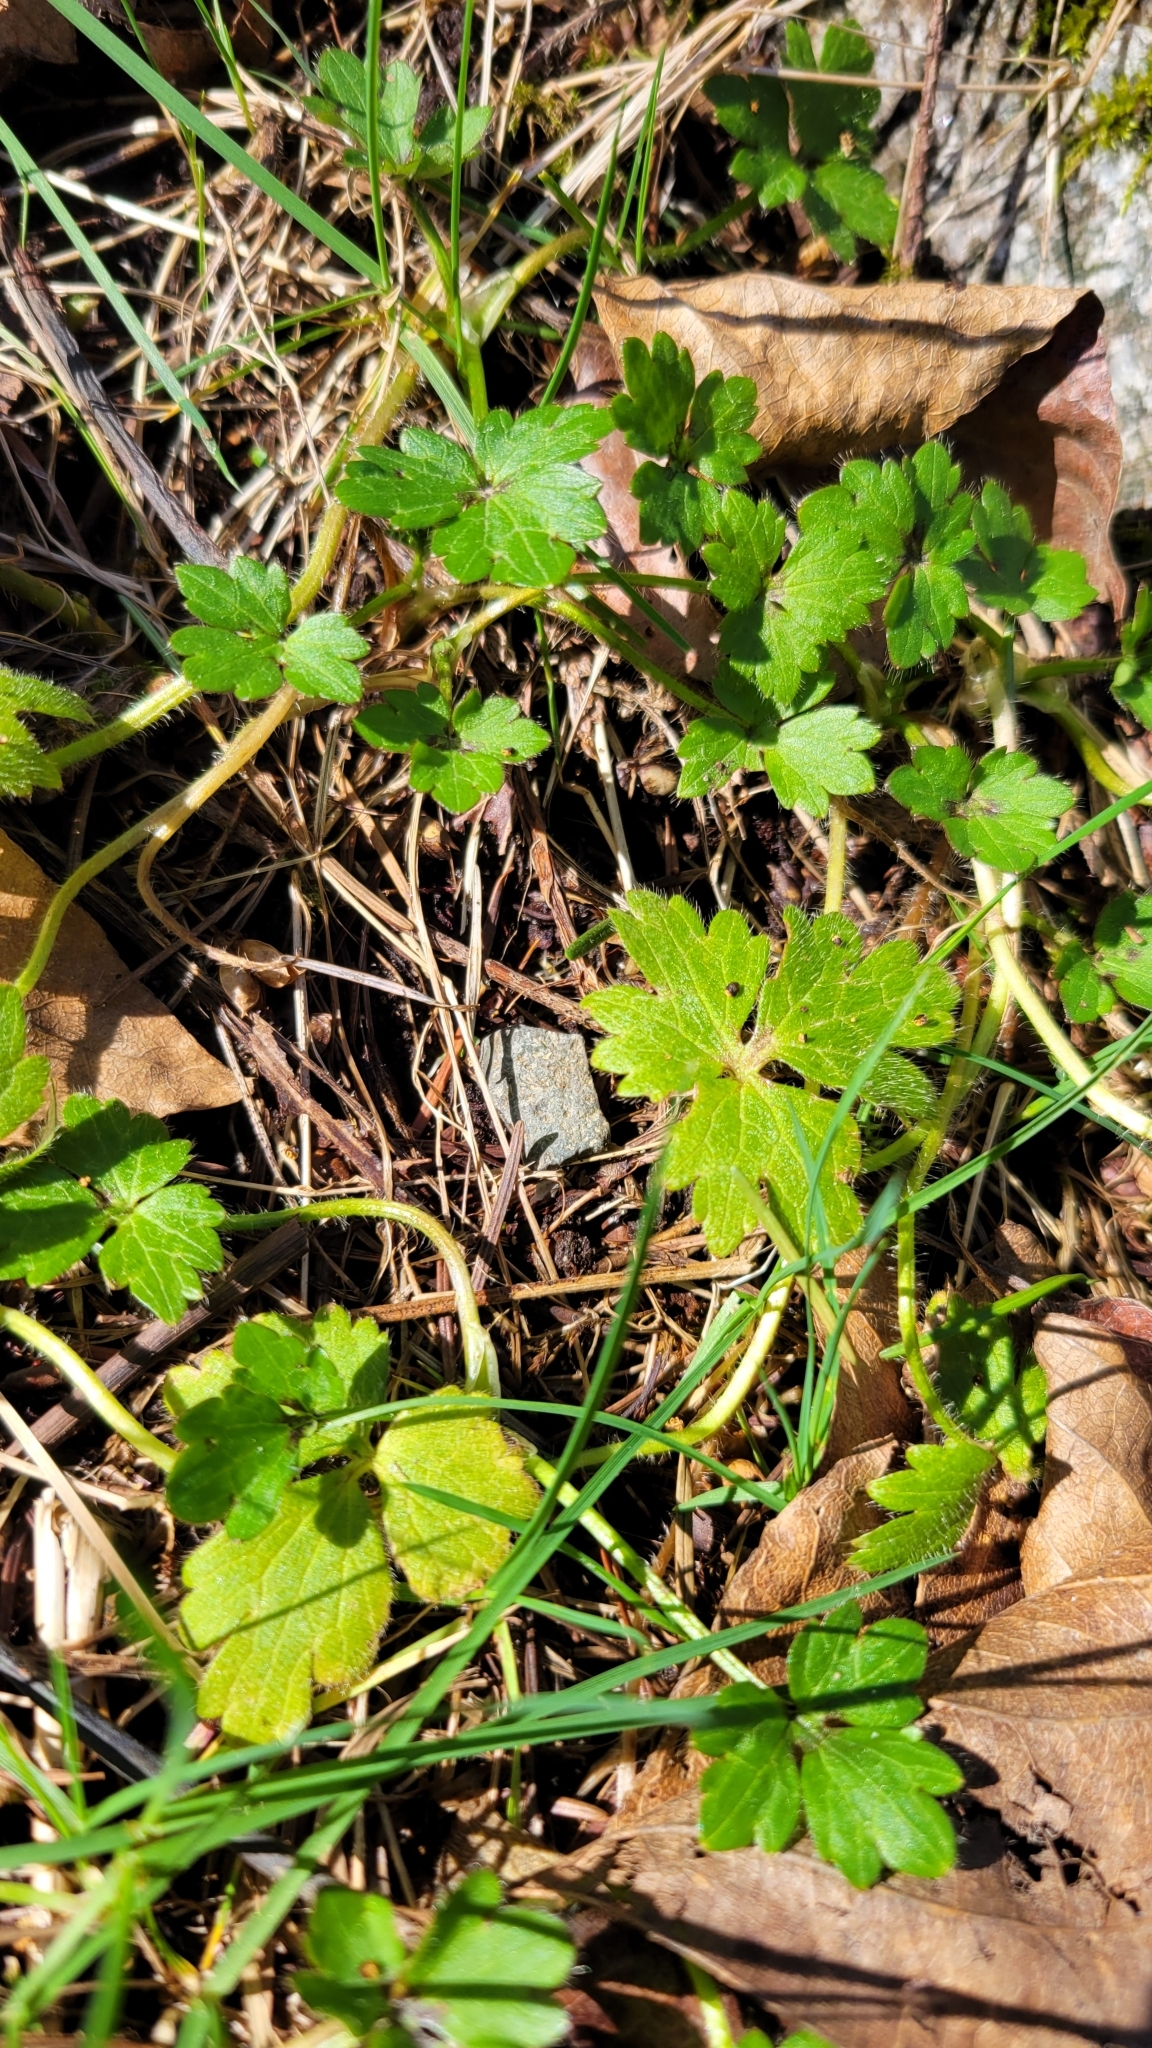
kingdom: Plantae
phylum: Tracheophyta
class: Magnoliopsida
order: Ranunculales
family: Ranunculaceae
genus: Ranunculus
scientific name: Ranunculus repens
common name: Creeping buttercup
